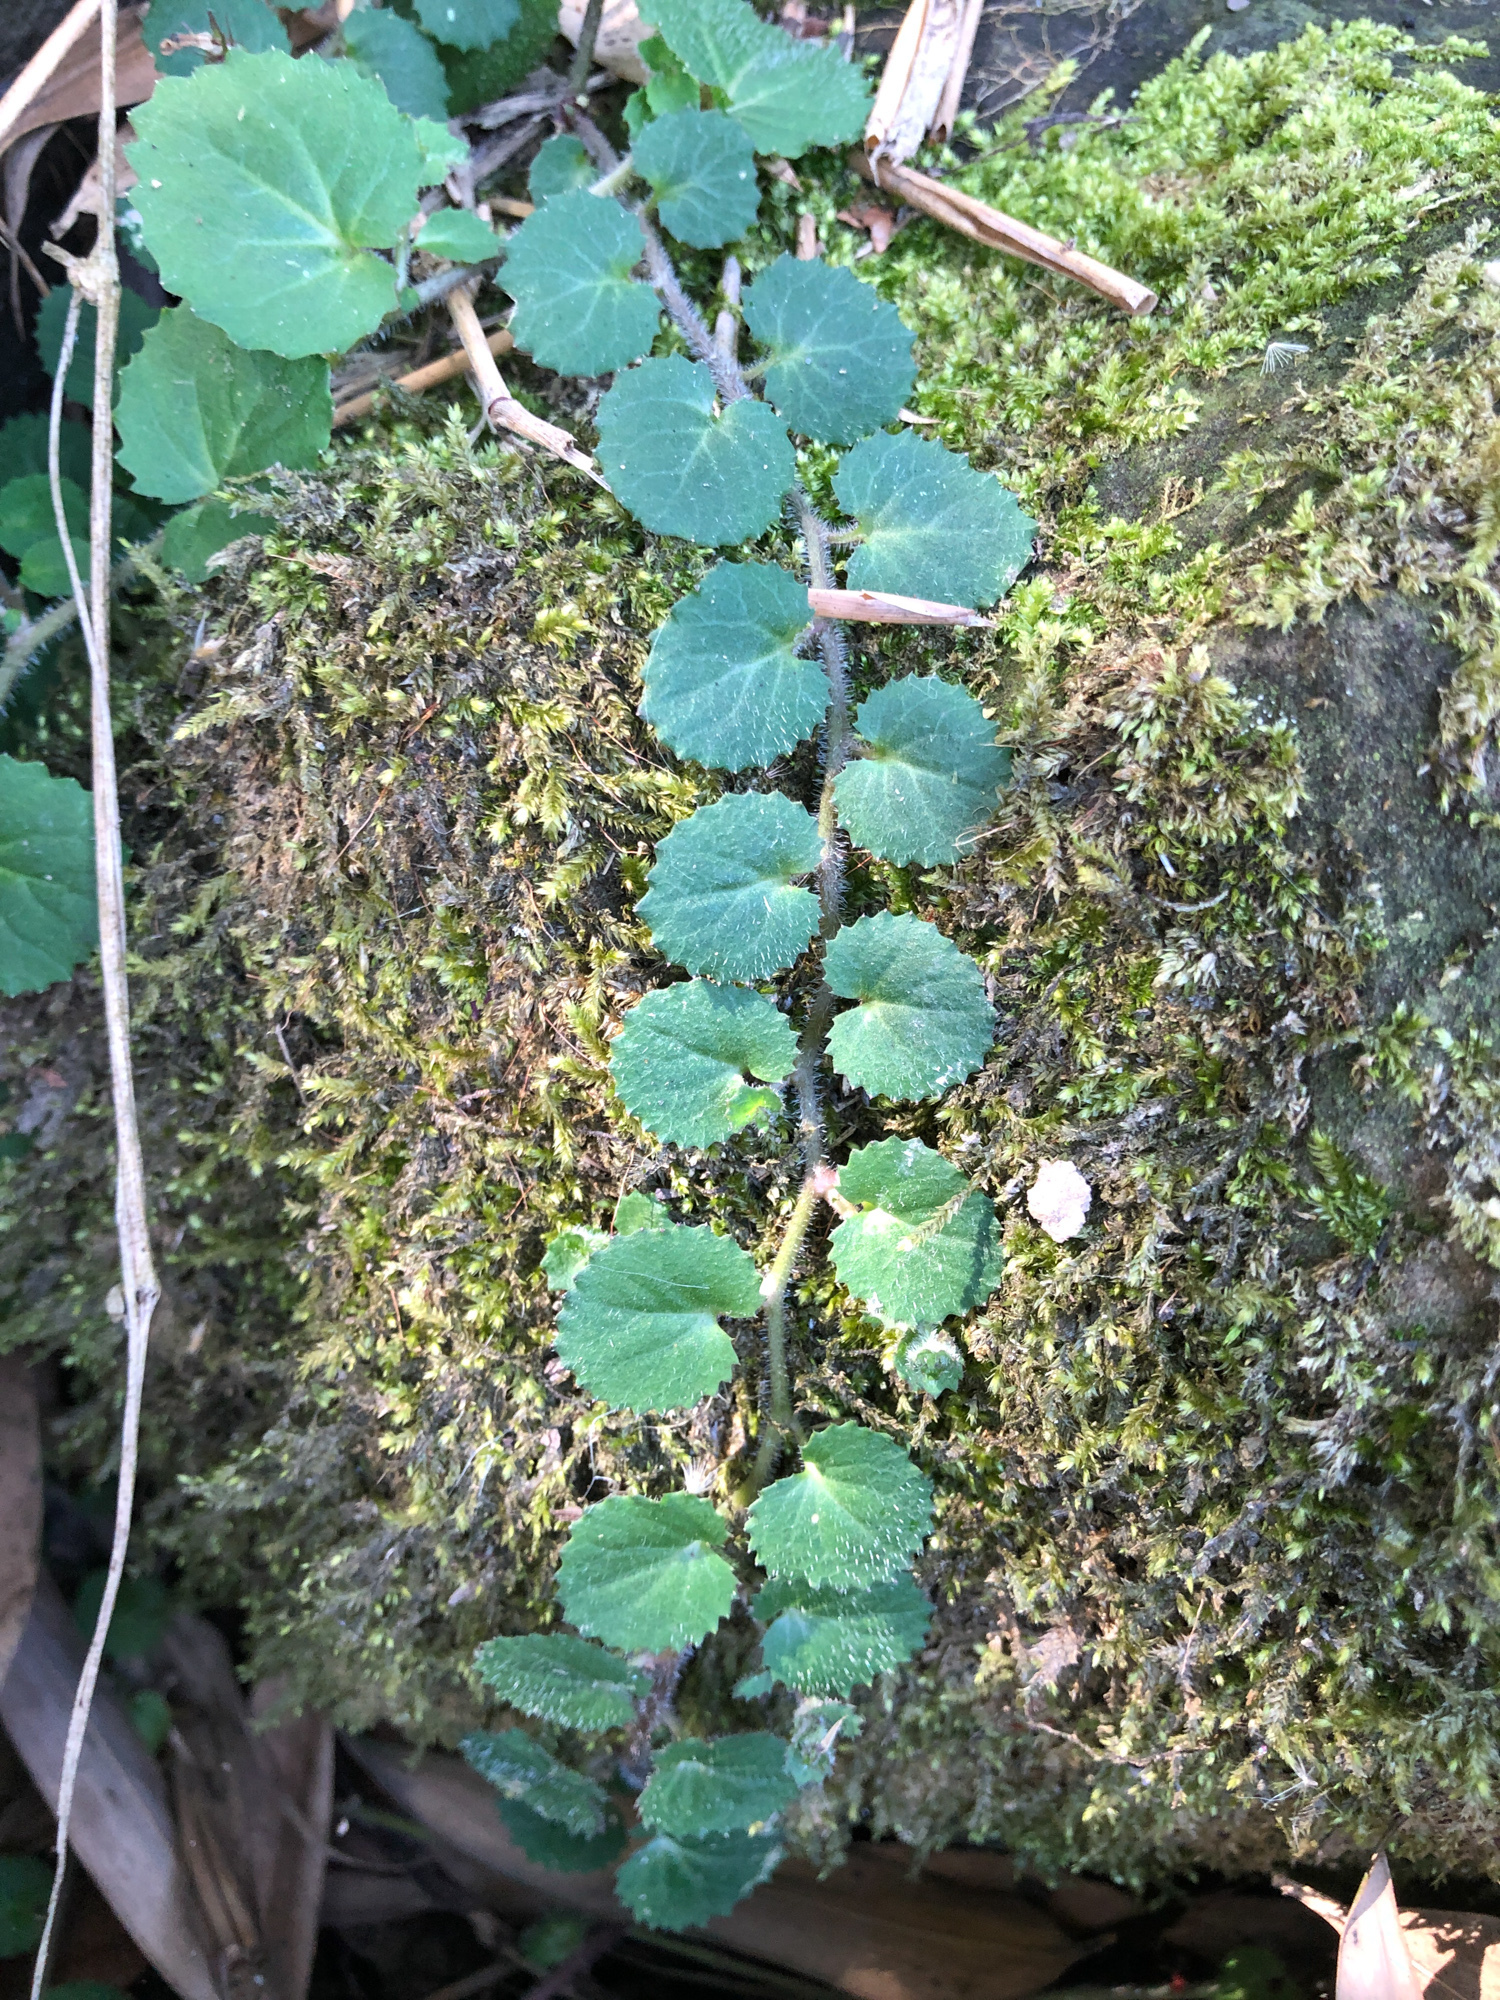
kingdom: Plantae
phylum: Tracheophyta
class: Magnoliopsida
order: Asterales
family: Campanulaceae
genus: Lobelia
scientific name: Lobelia nummularia
